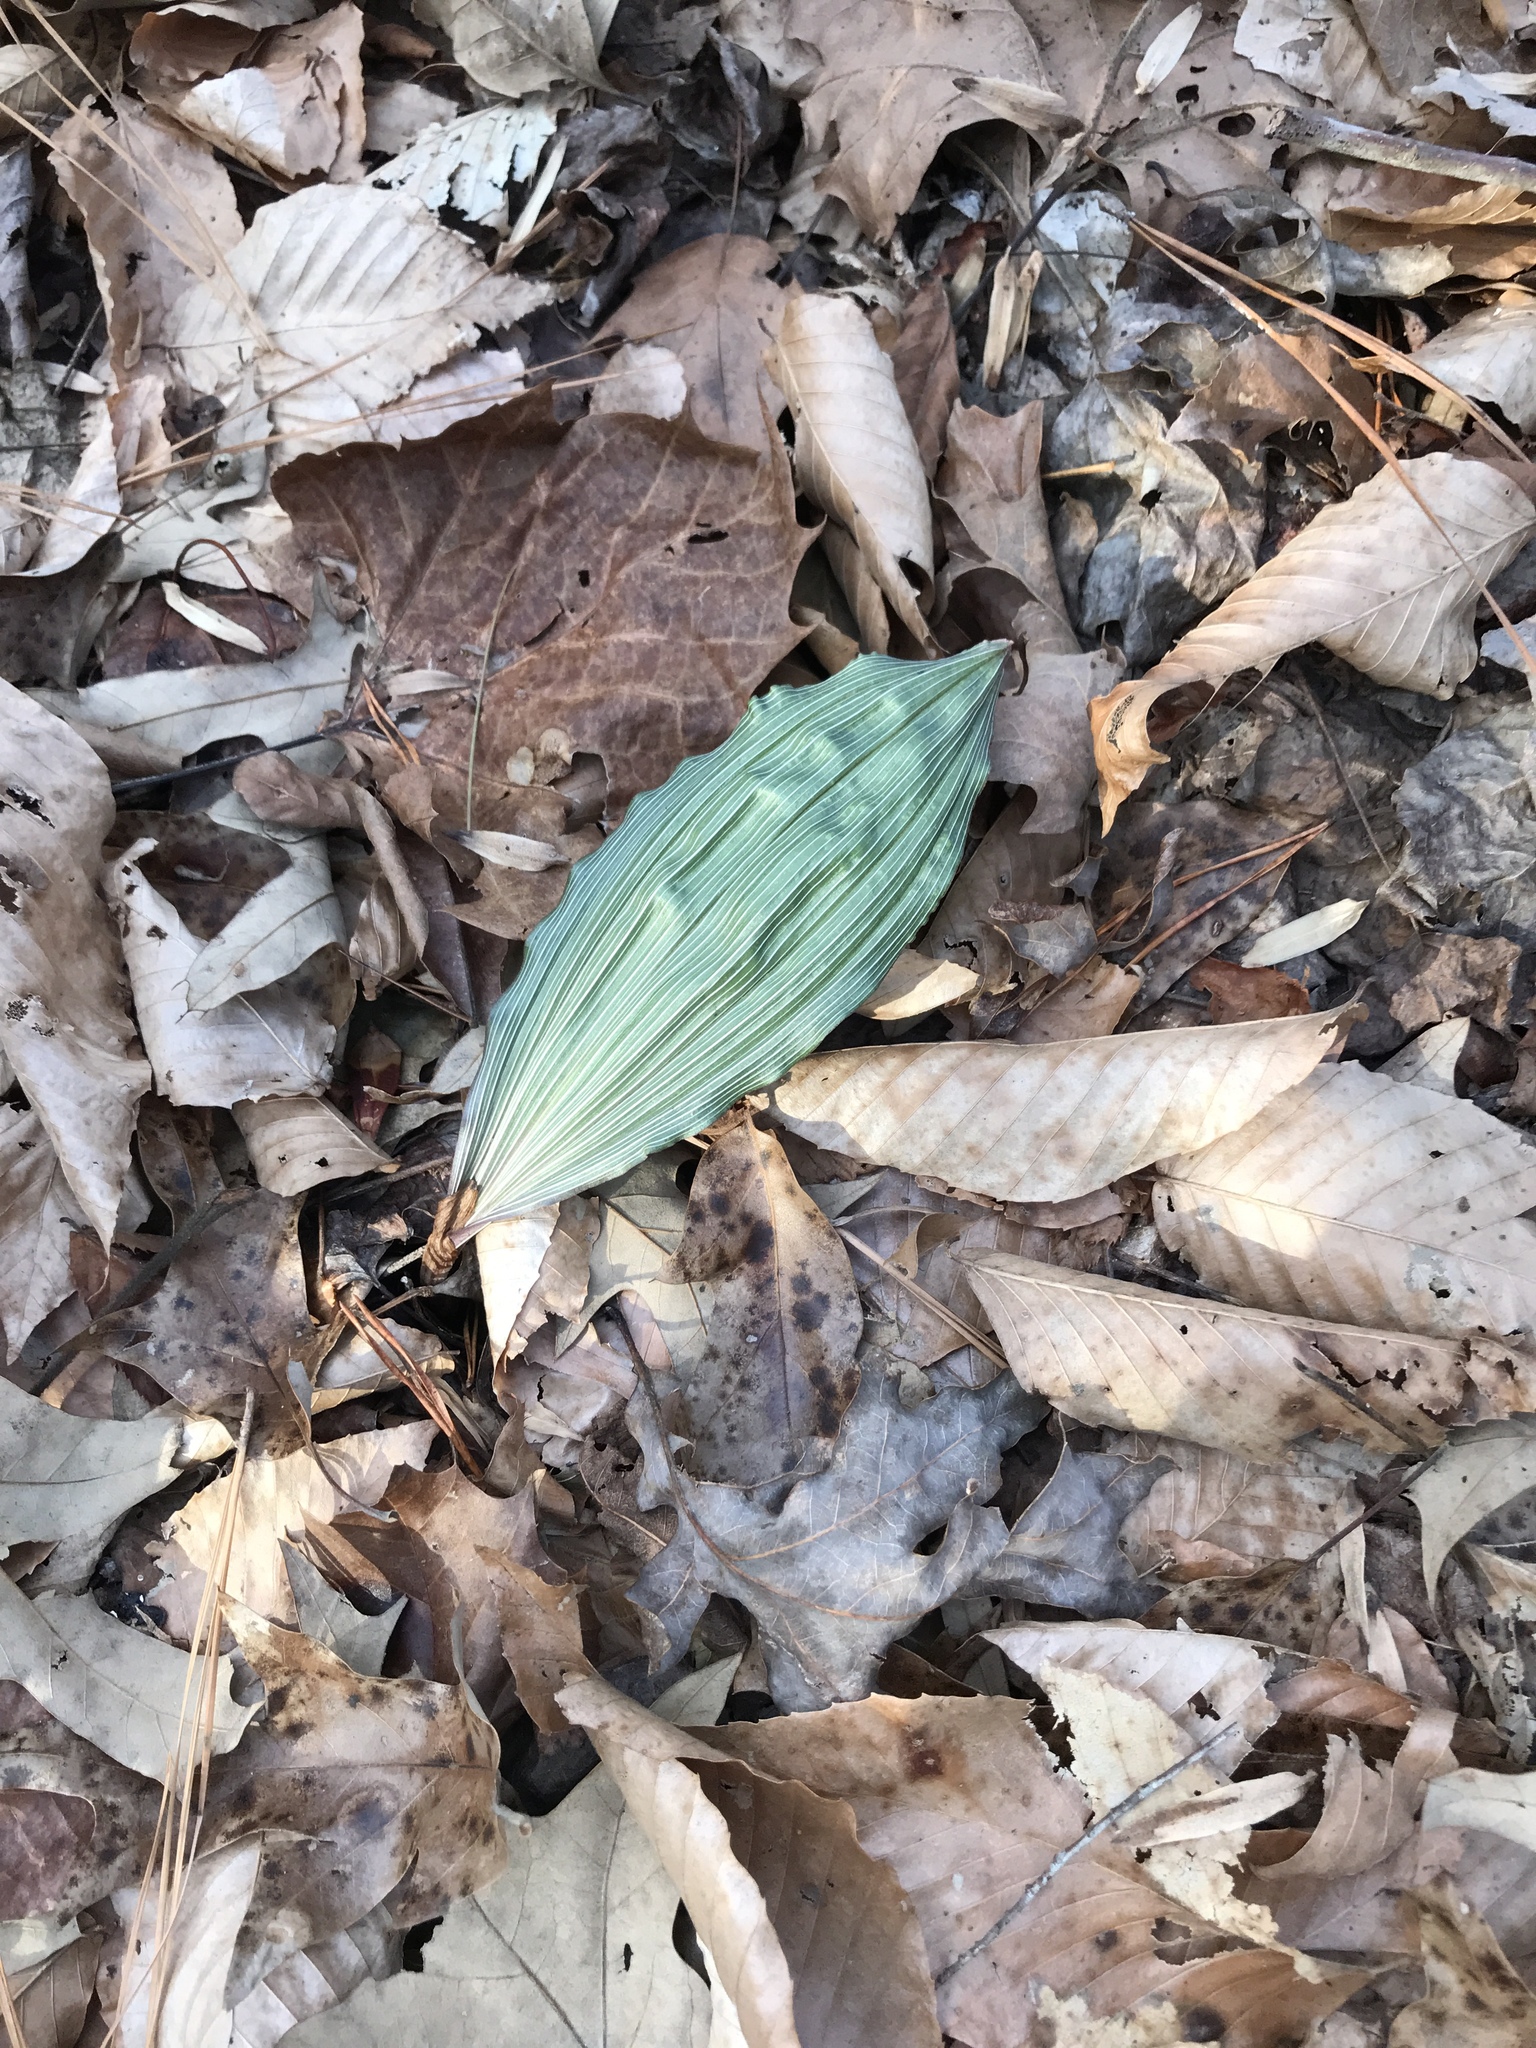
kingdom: Plantae
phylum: Tracheophyta
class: Liliopsida
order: Asparagales
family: Orchidaceae
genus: Aplectrum
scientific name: Aplectrum hyemale
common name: Adam-and-eve
